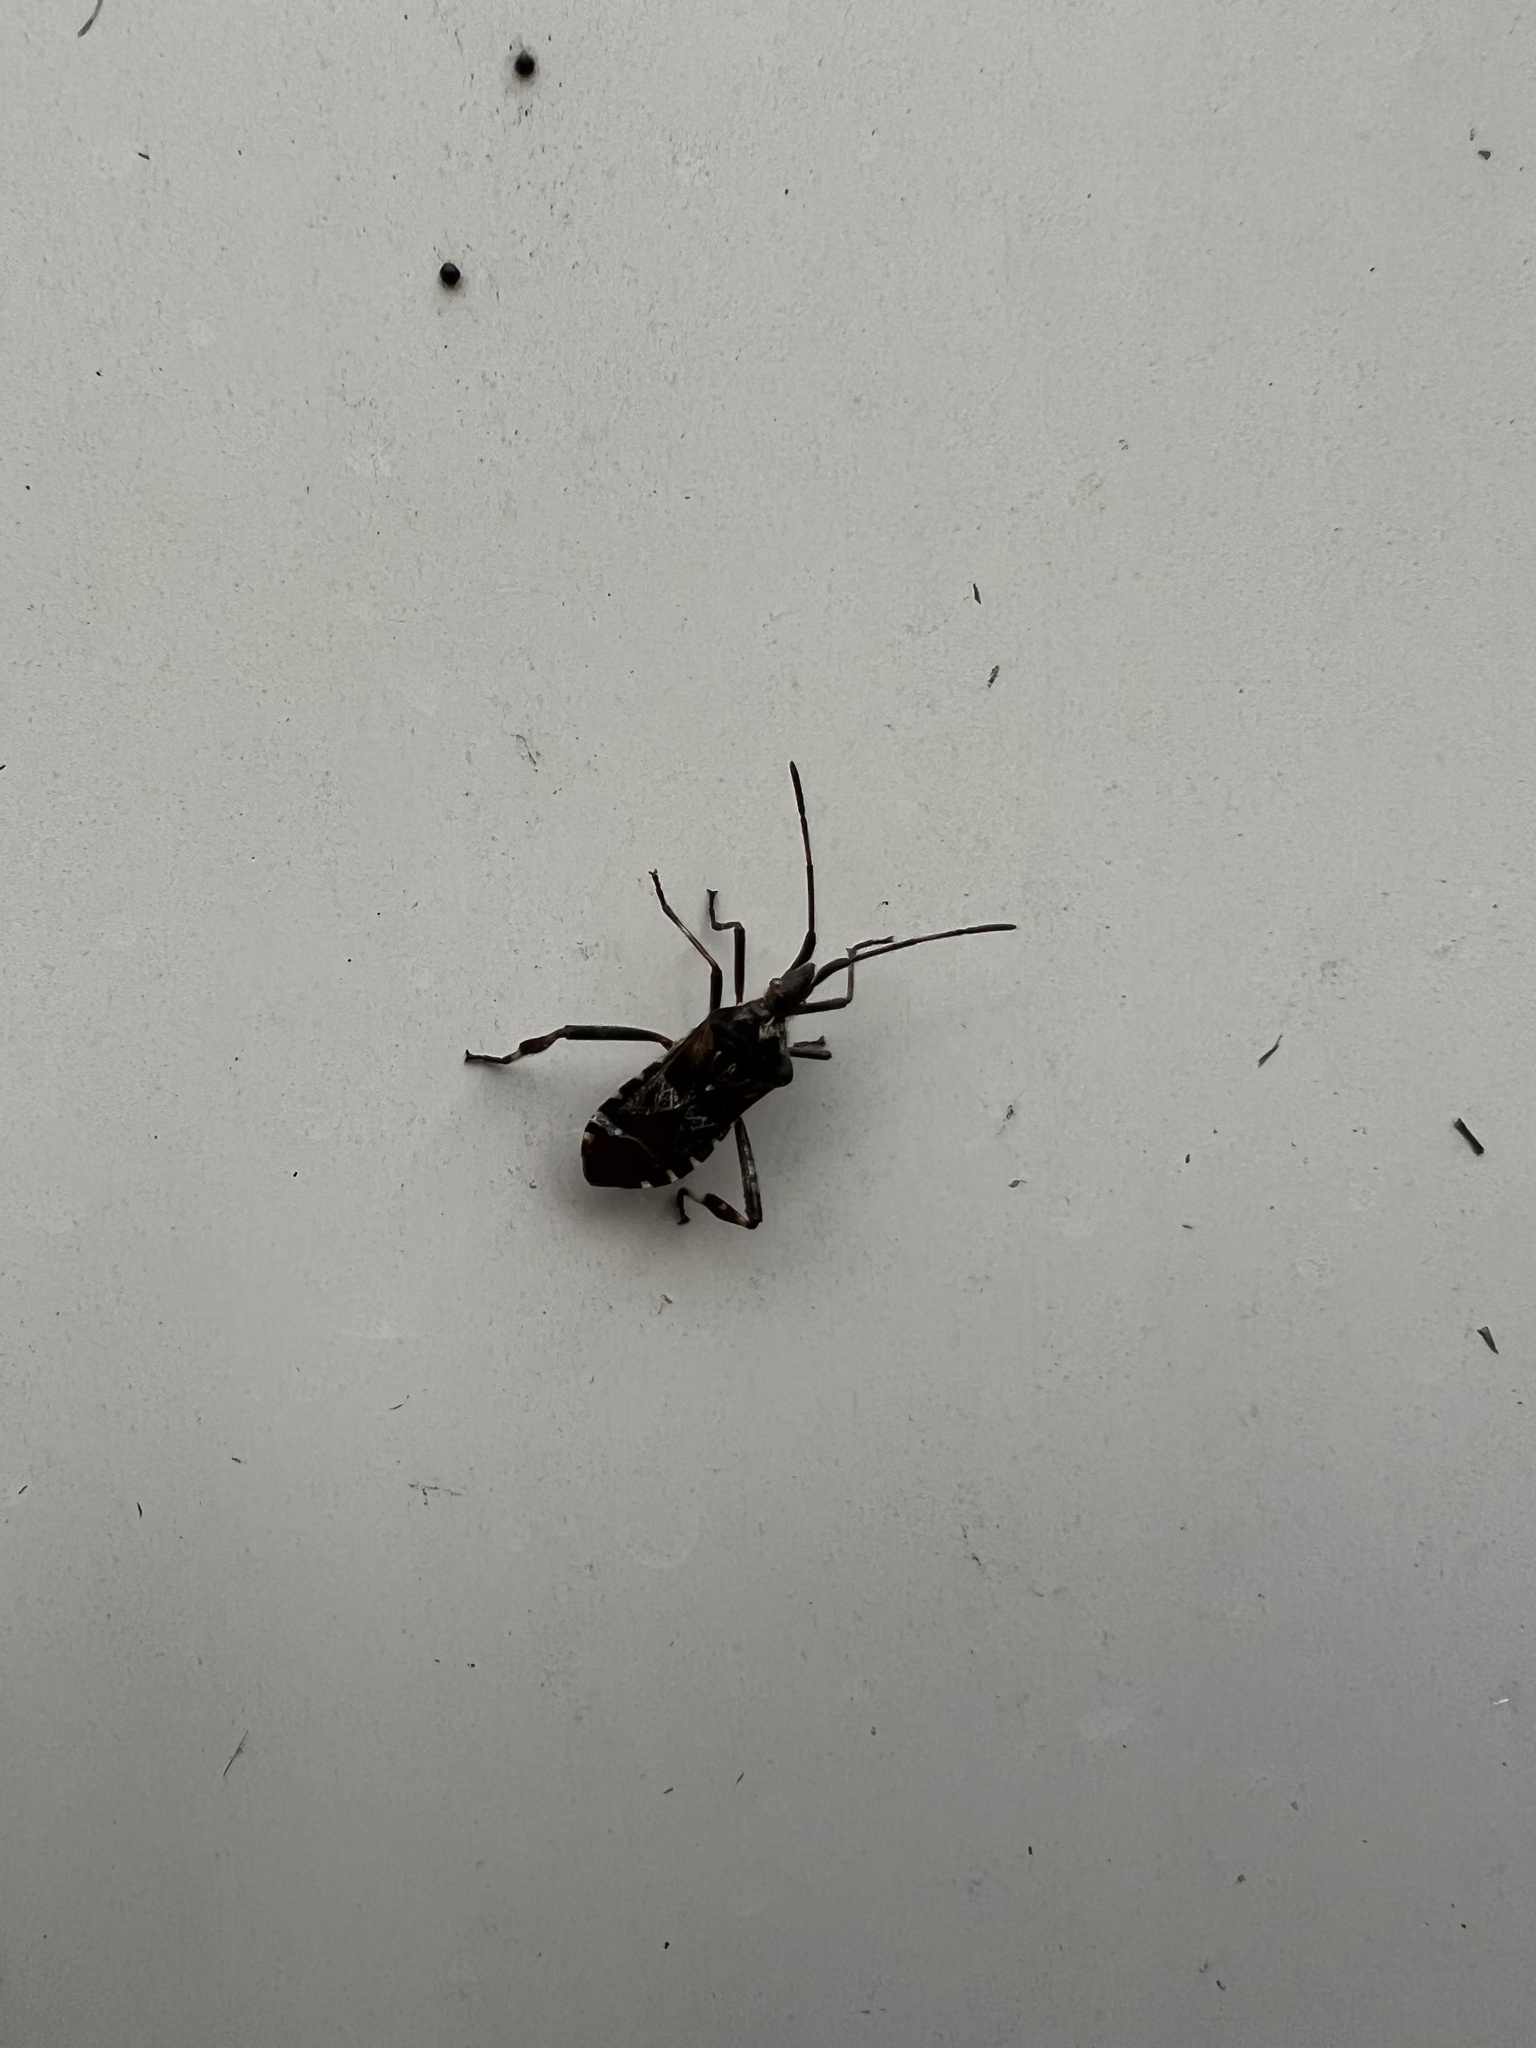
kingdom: Animalia
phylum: Arthropoda
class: Insecta
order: Hemiptera
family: Coreidae
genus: Leptoglossus
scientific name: Leptoglossus occidentalis
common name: Western conifer-seed bug
